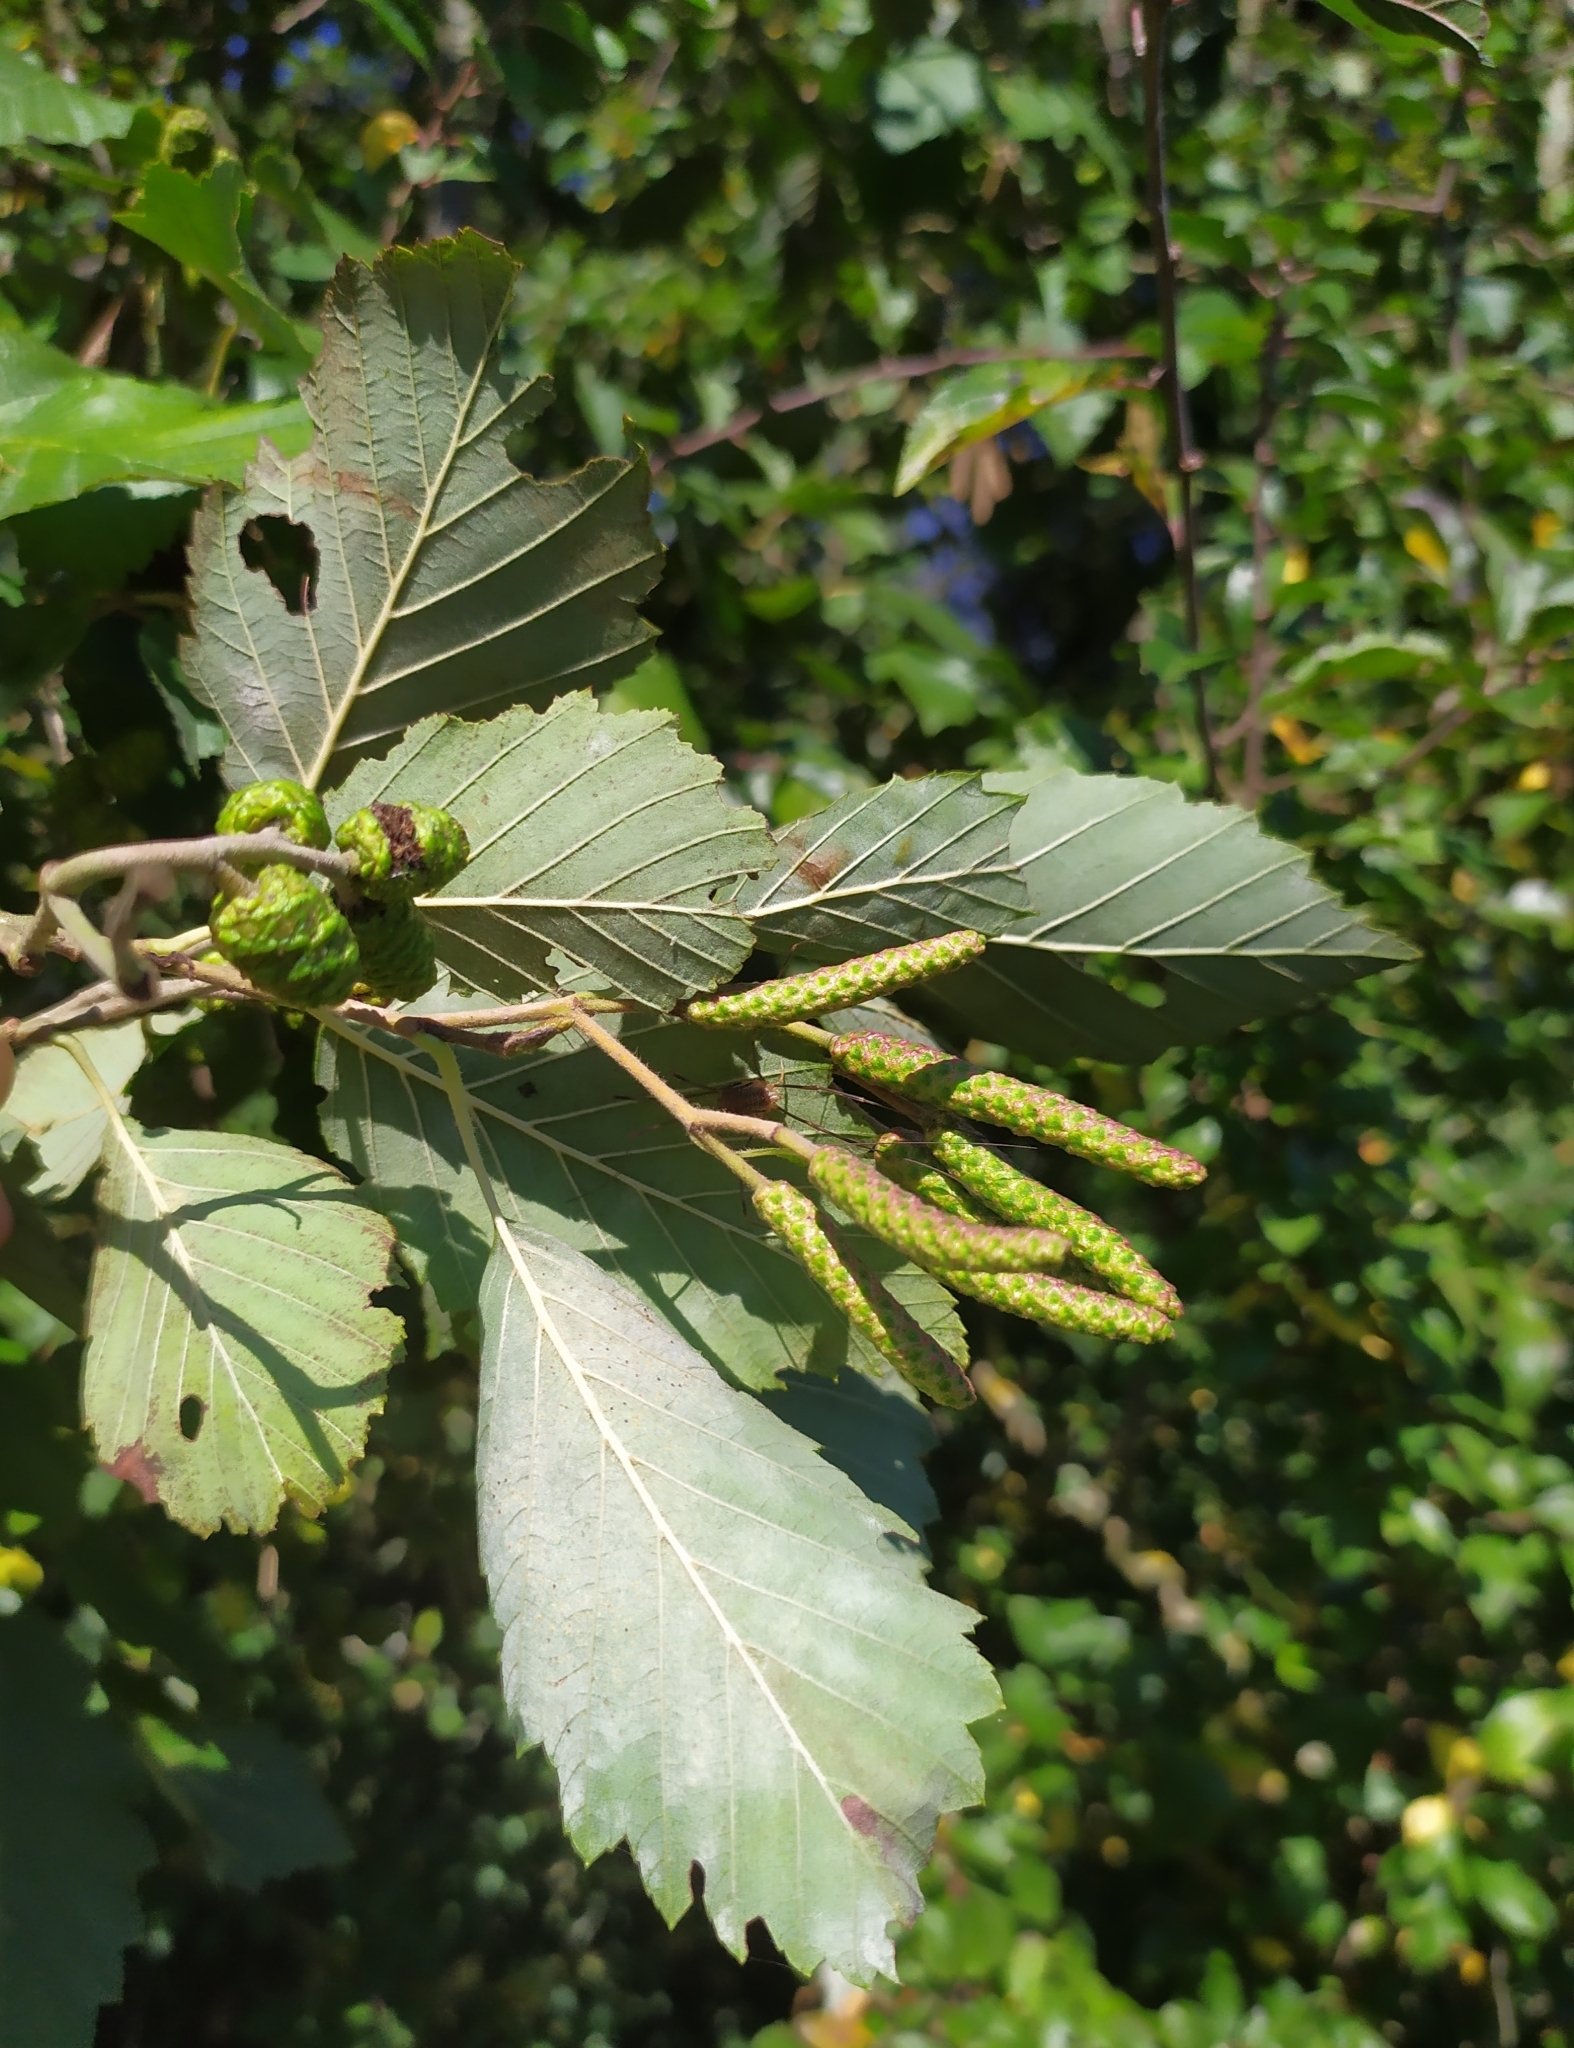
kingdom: Fungi
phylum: Ascomycota
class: Leotiomycetes
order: Helotiales
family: Erysiphaceae
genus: Phyllactinia
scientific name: Phyllactinia alnicola
